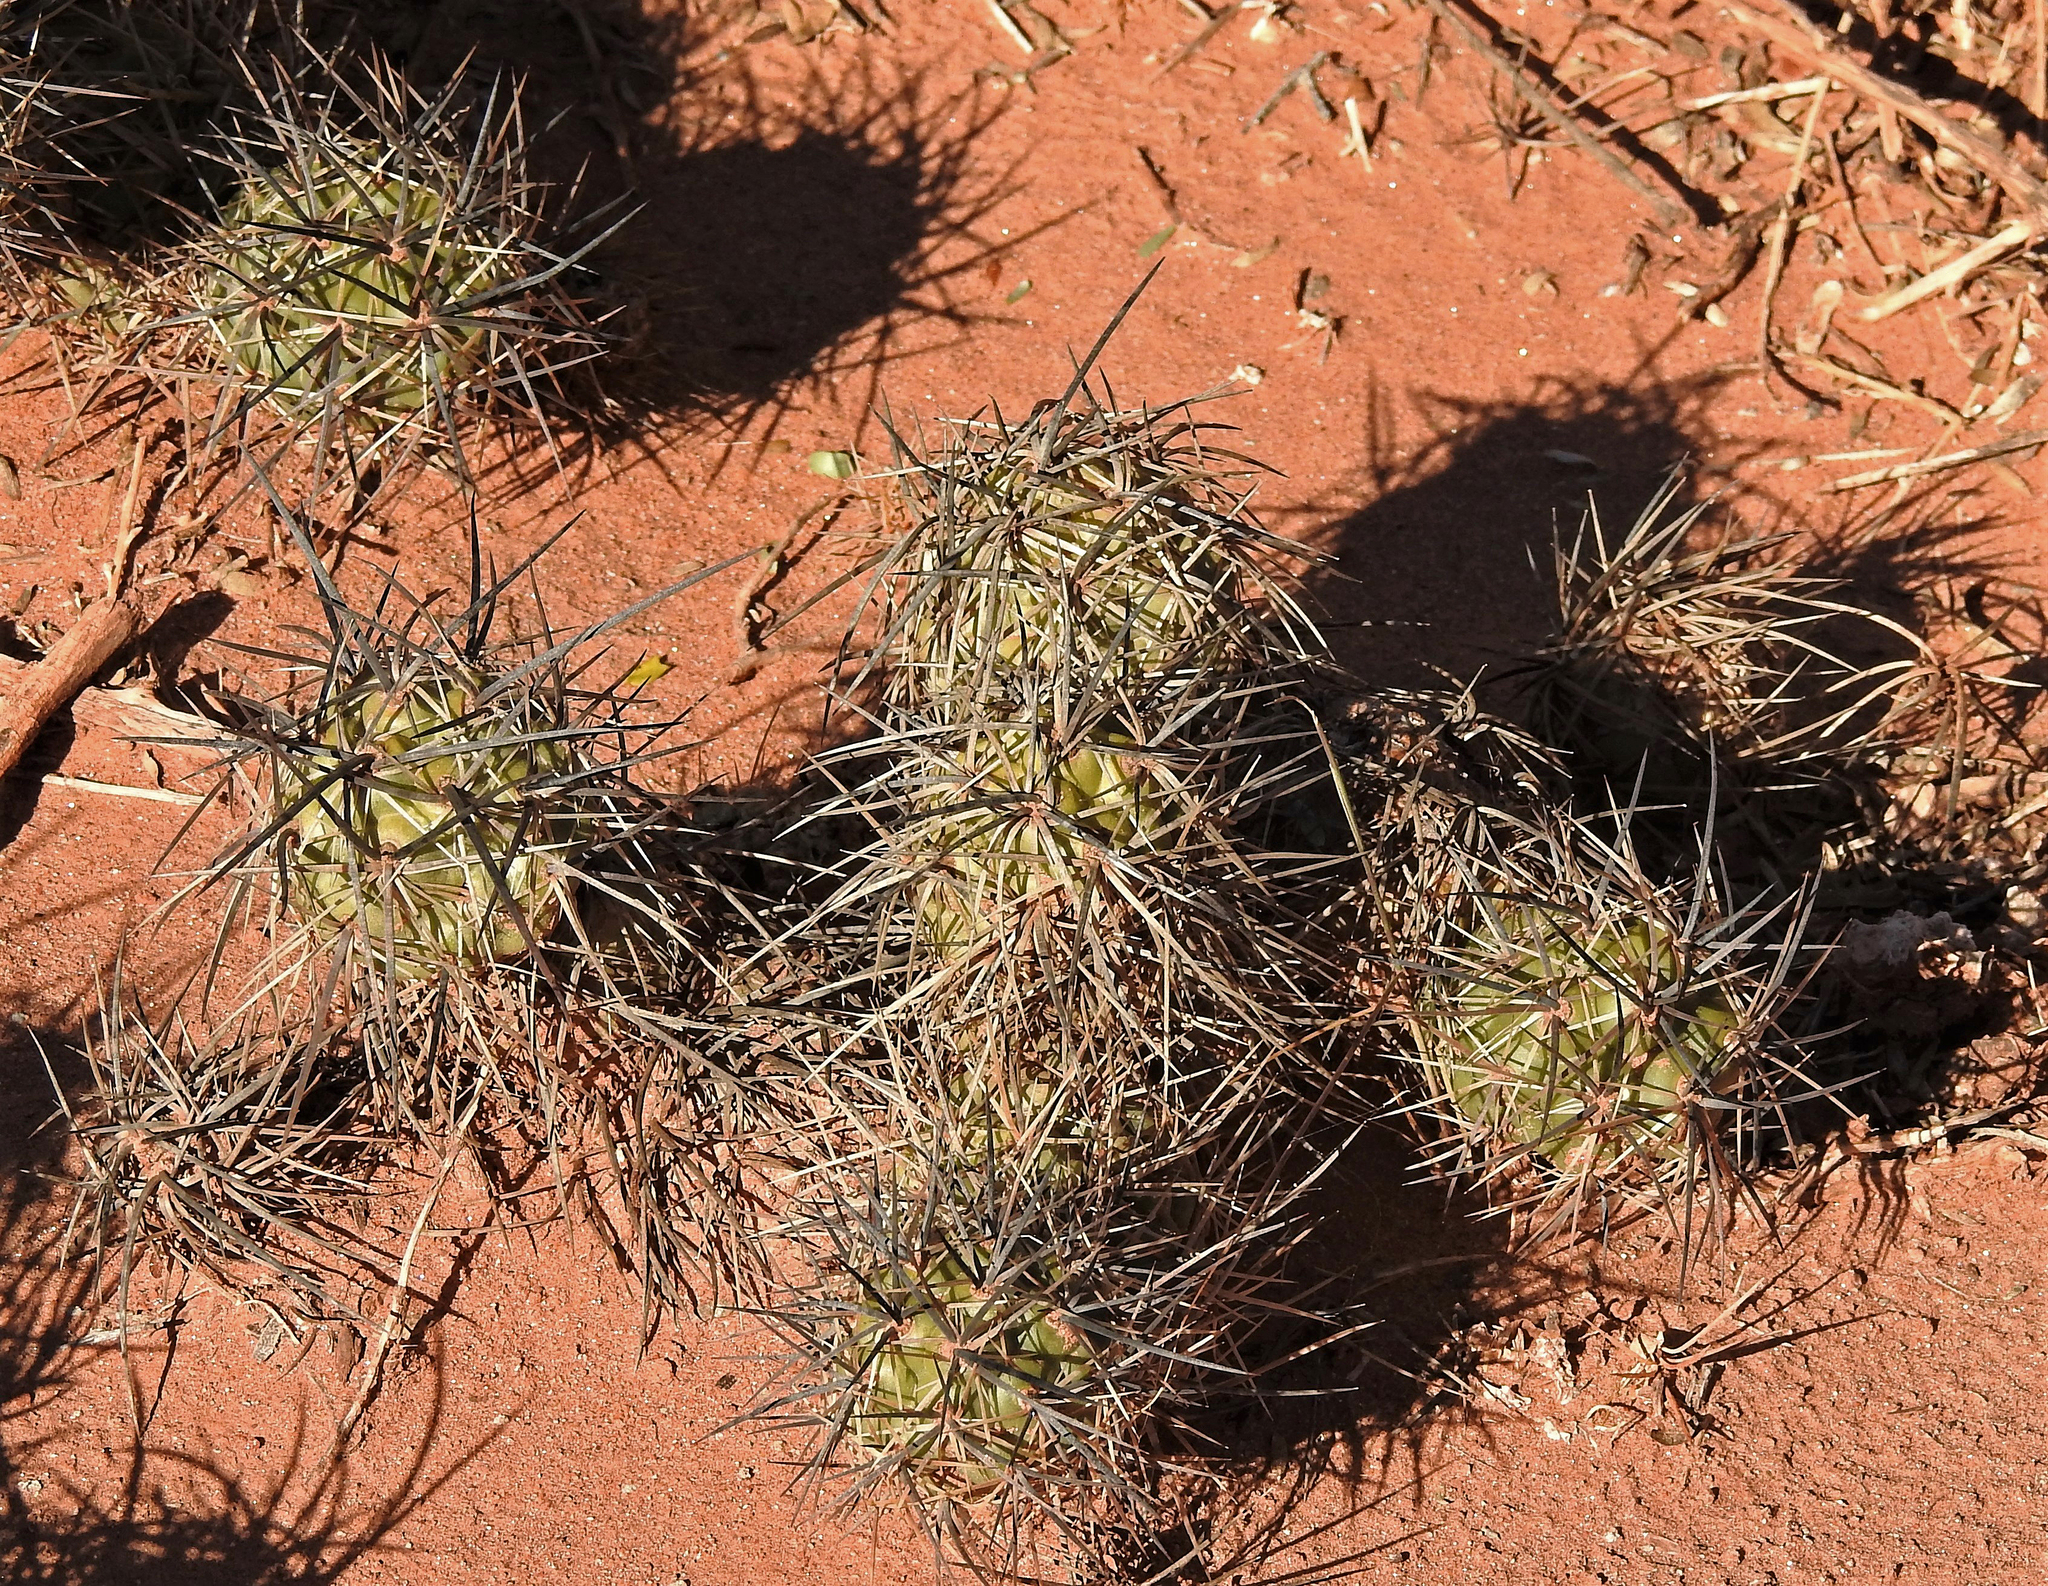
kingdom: Plantae
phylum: Tracheophyta
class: Magnoliopsida
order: Caryophyllales
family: Cactaceae
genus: Tephrocactus
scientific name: Tephrocactus alexanderi
